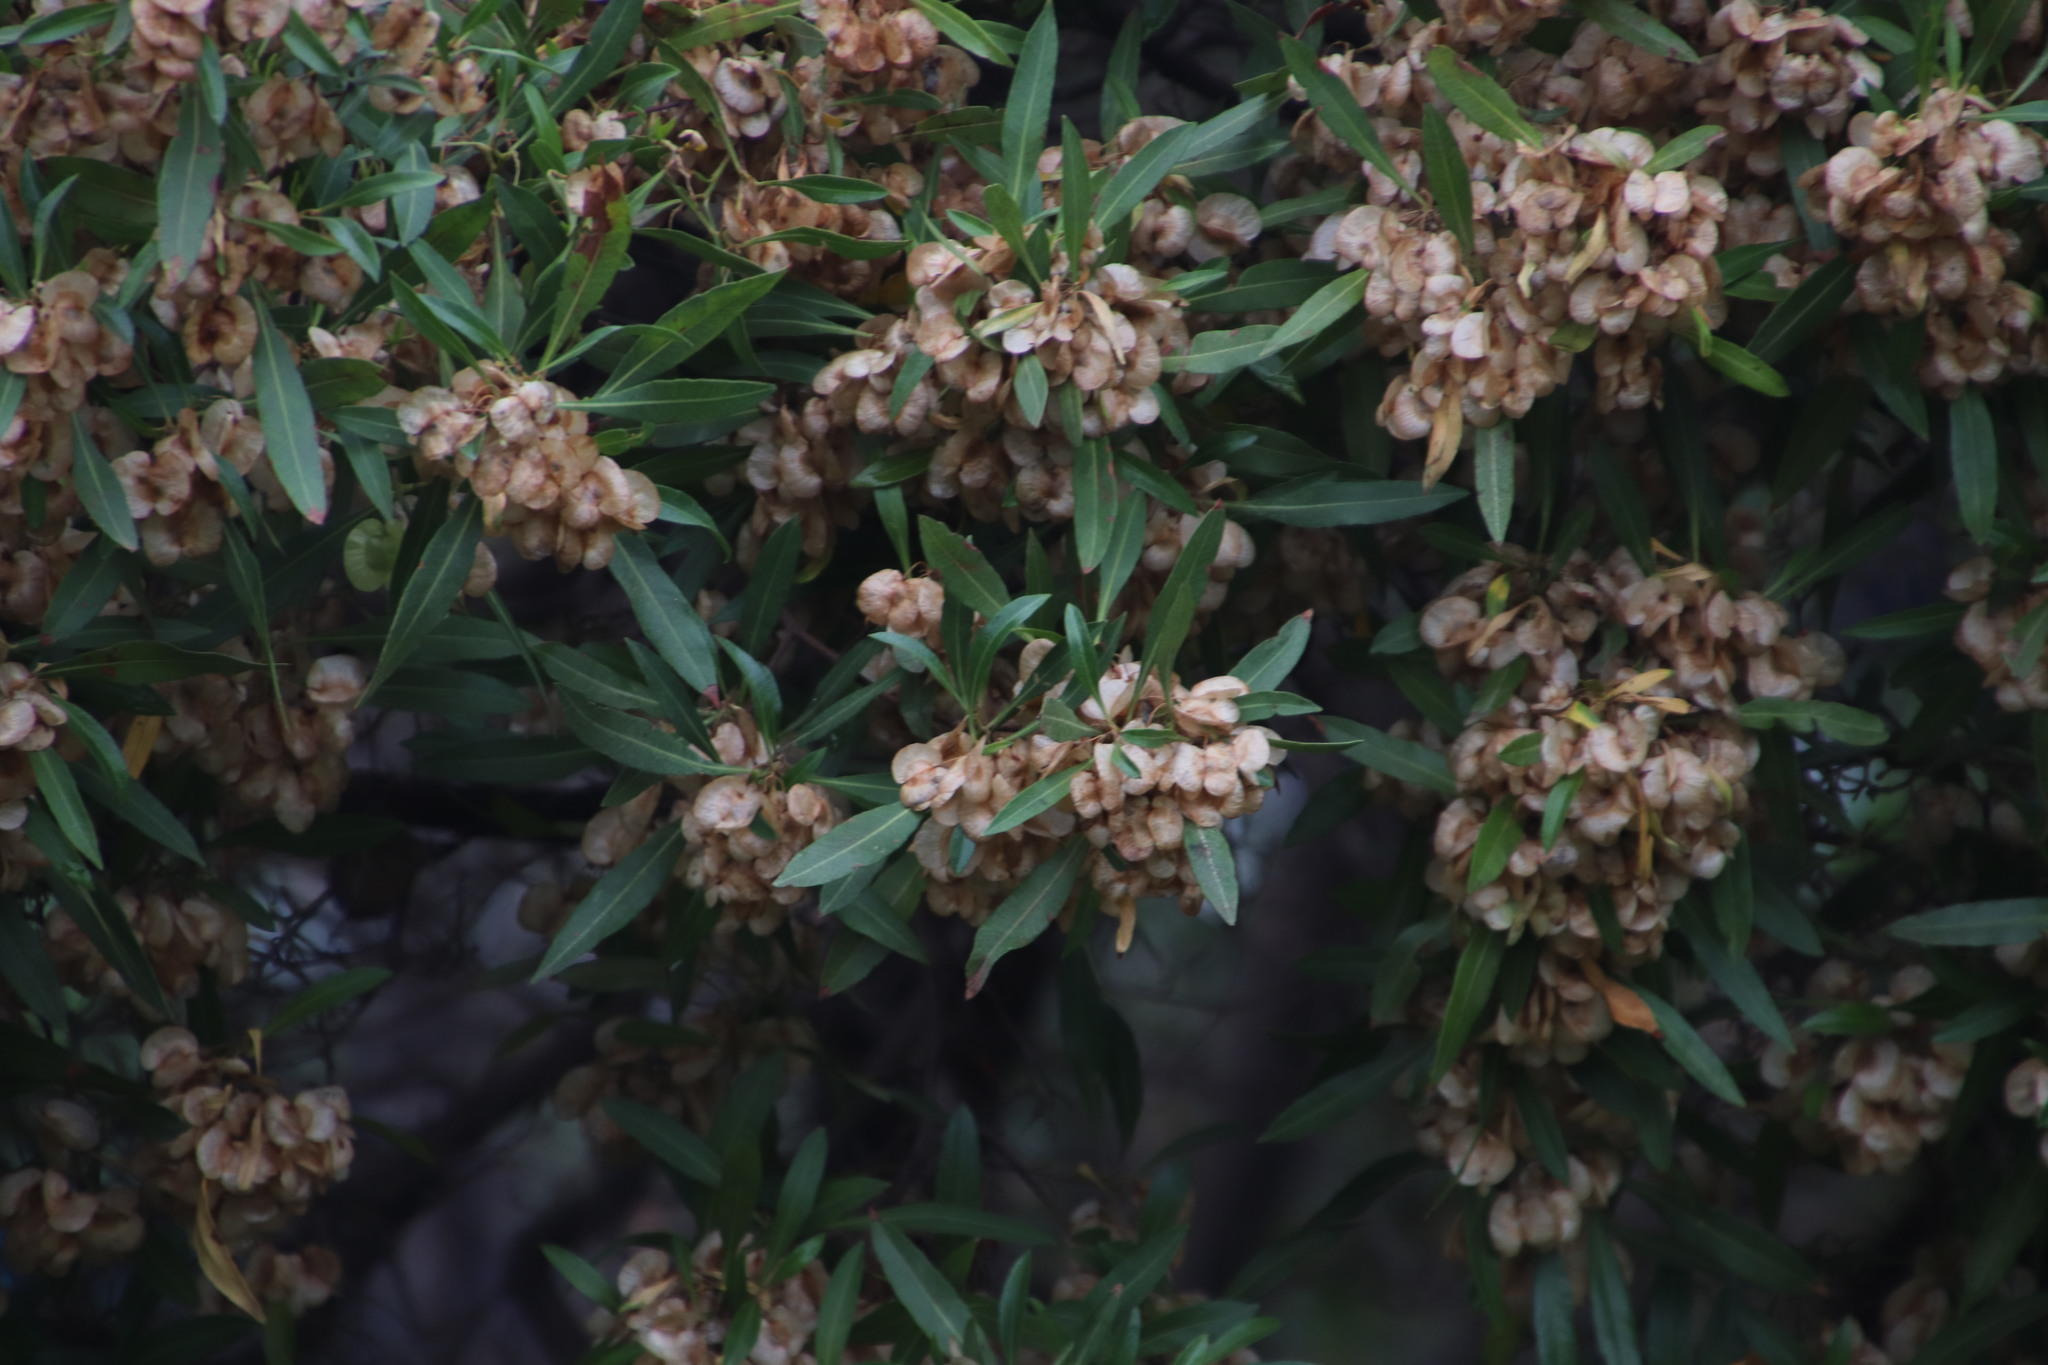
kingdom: Plantae
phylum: Tracheophyta
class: Magnoliopsida
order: Sapindales
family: Sapindaceae
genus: Dodonaea
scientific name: Dodonaea viscosa
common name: Hopbush
